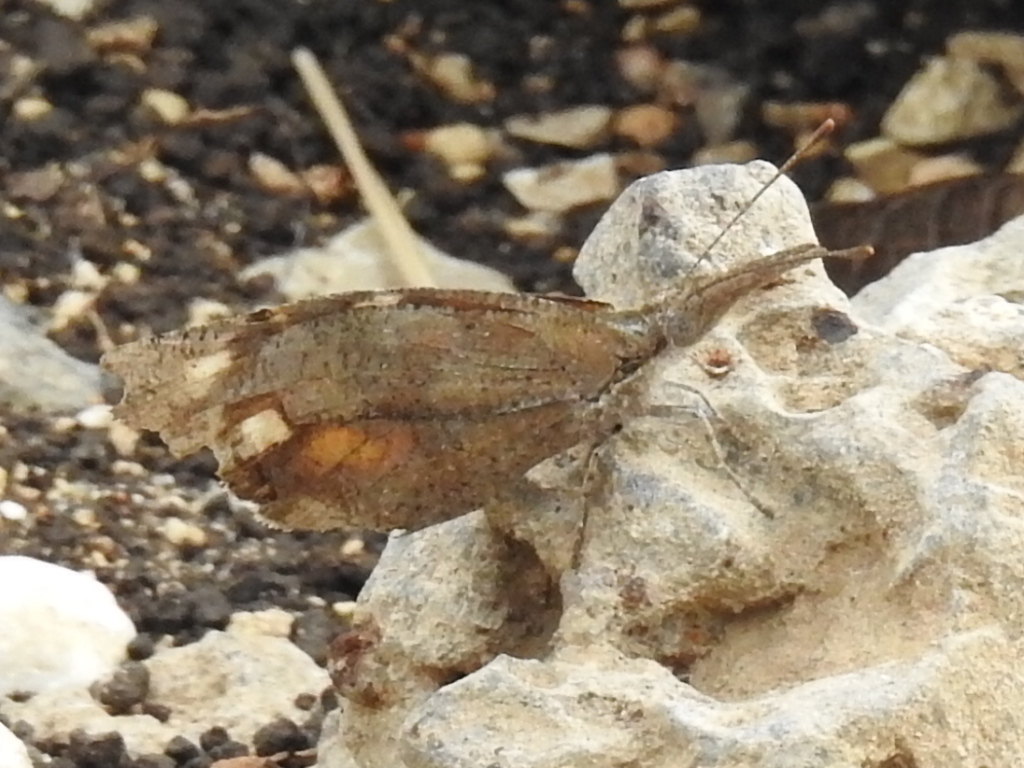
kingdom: Animalia
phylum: Arthropoda
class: Insecta
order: Lepidoptera
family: Nymphalidae
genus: Libytheana
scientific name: Libytheana carinenta
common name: American snout
